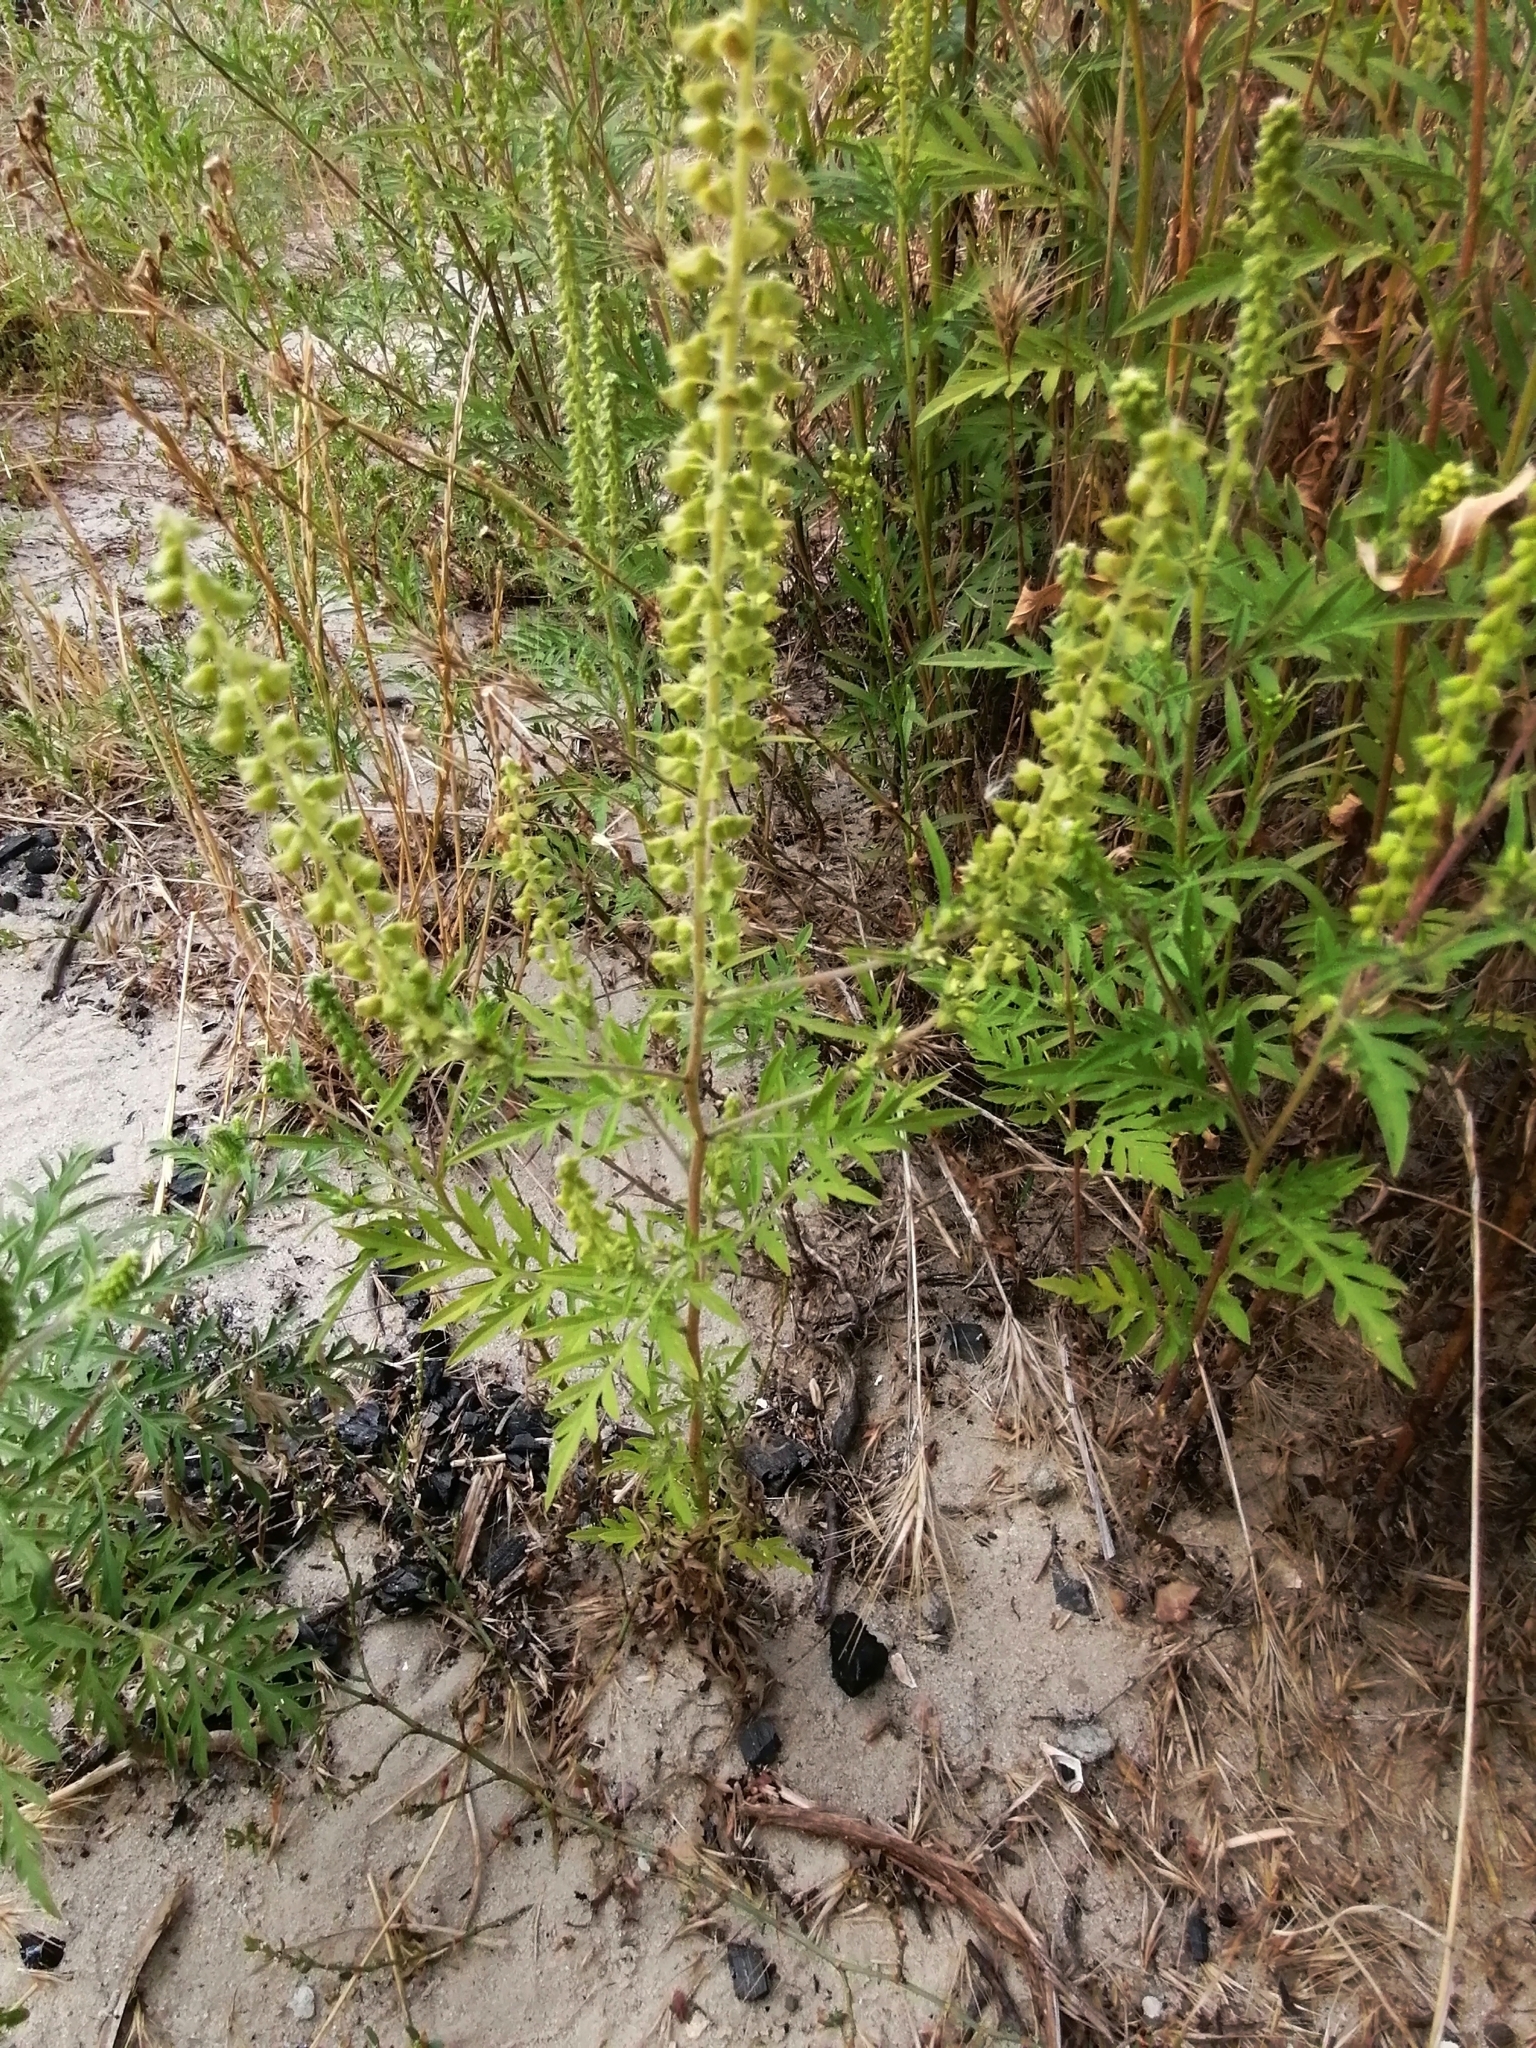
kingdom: Plantae
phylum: Tracheophyta
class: Magnoliopsida
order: Asterales
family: Asteraceae
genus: Ambrosia
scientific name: Ambrosia artemisiifolia
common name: Annual ragweed
